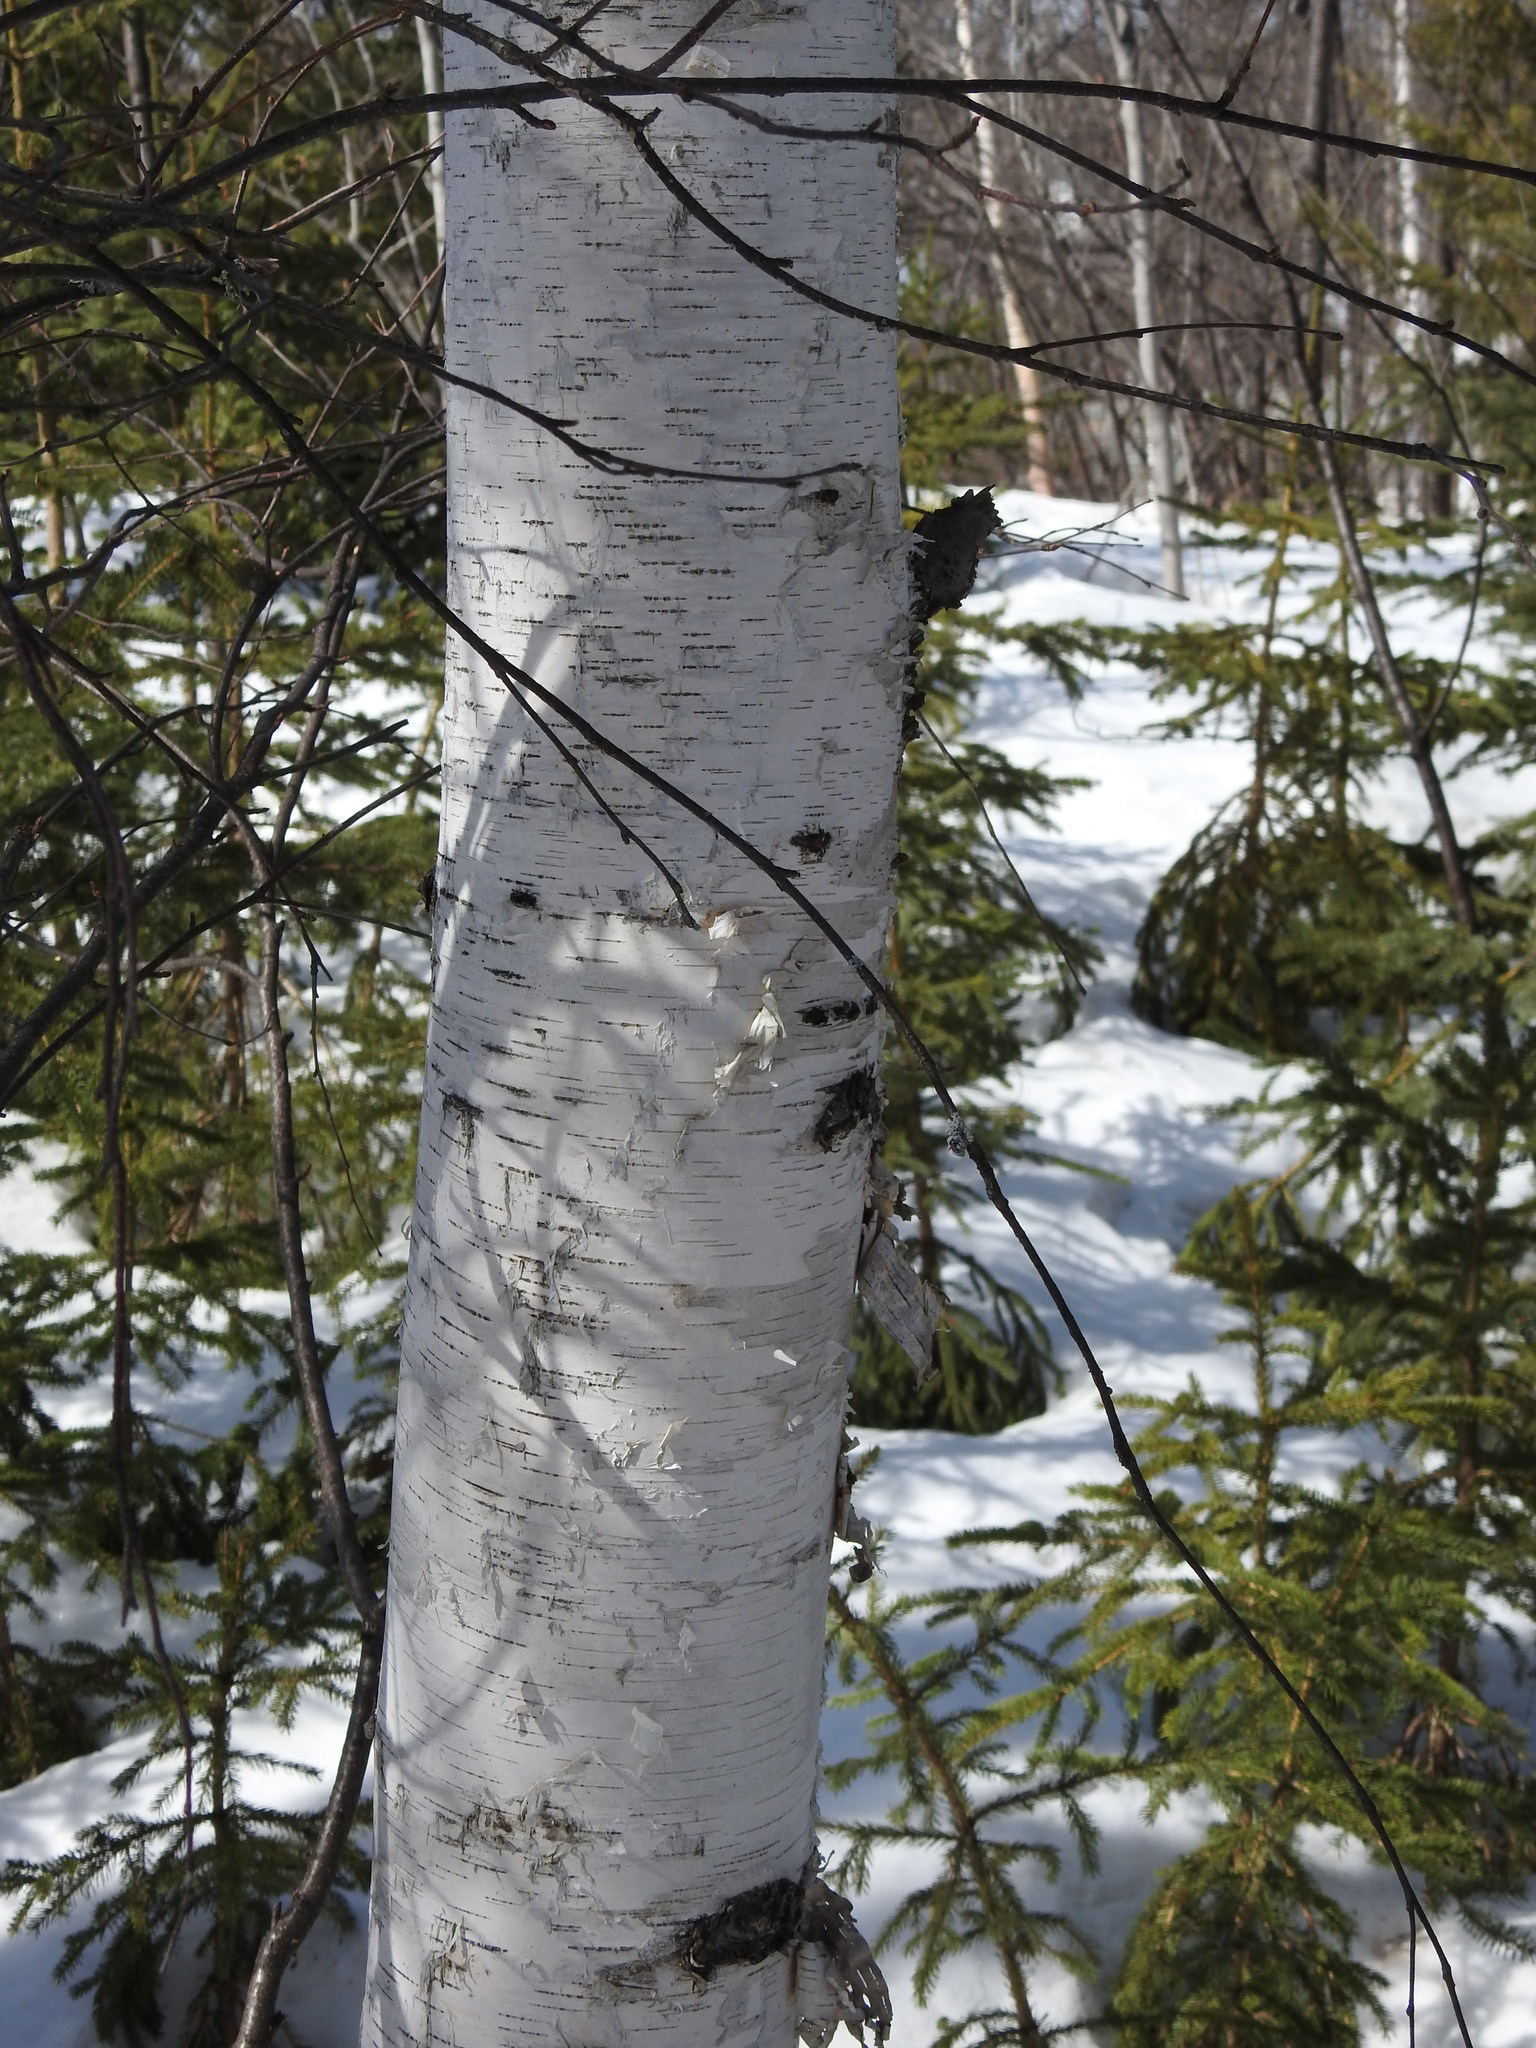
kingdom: Plantae
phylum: Tracheophyta
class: Magnoliopsida
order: Fagales
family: Betulaceae
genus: Betula
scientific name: Betula papyrifera
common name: Paper birch
